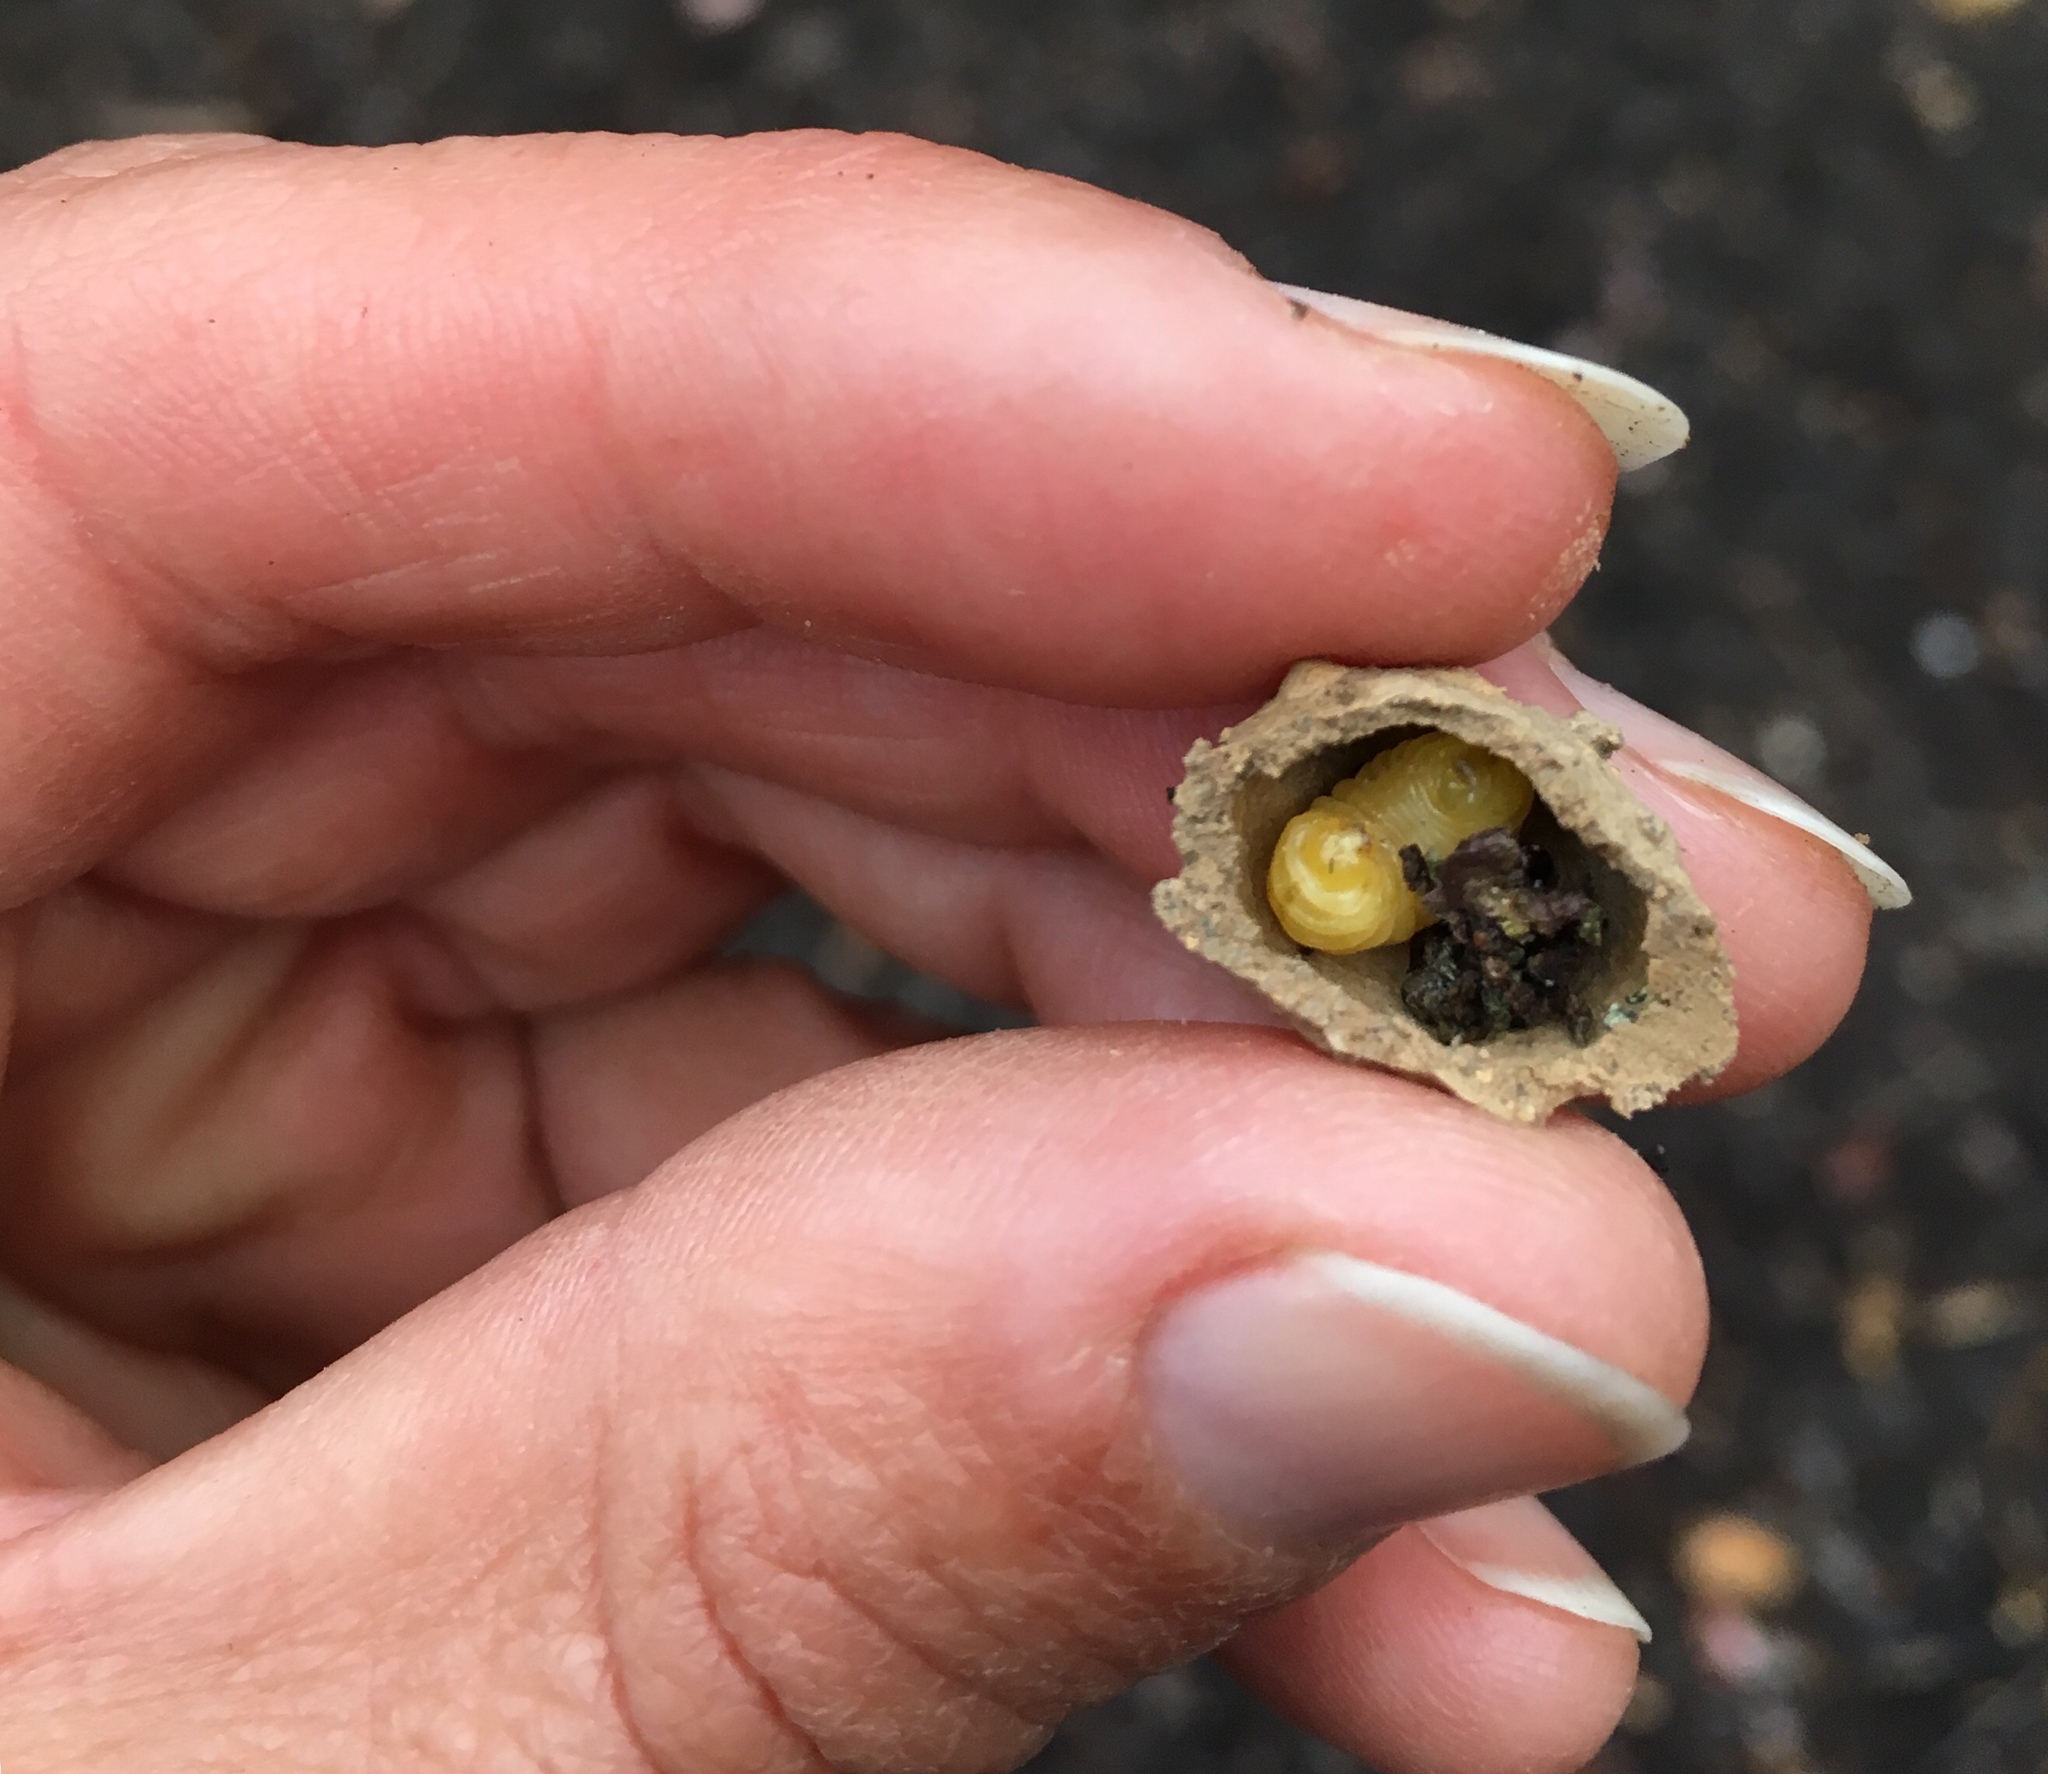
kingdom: Animalia
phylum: Arthropoda
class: Insecta
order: Hymenoptera
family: Vespidae
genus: Eumenes
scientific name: Eumenes
